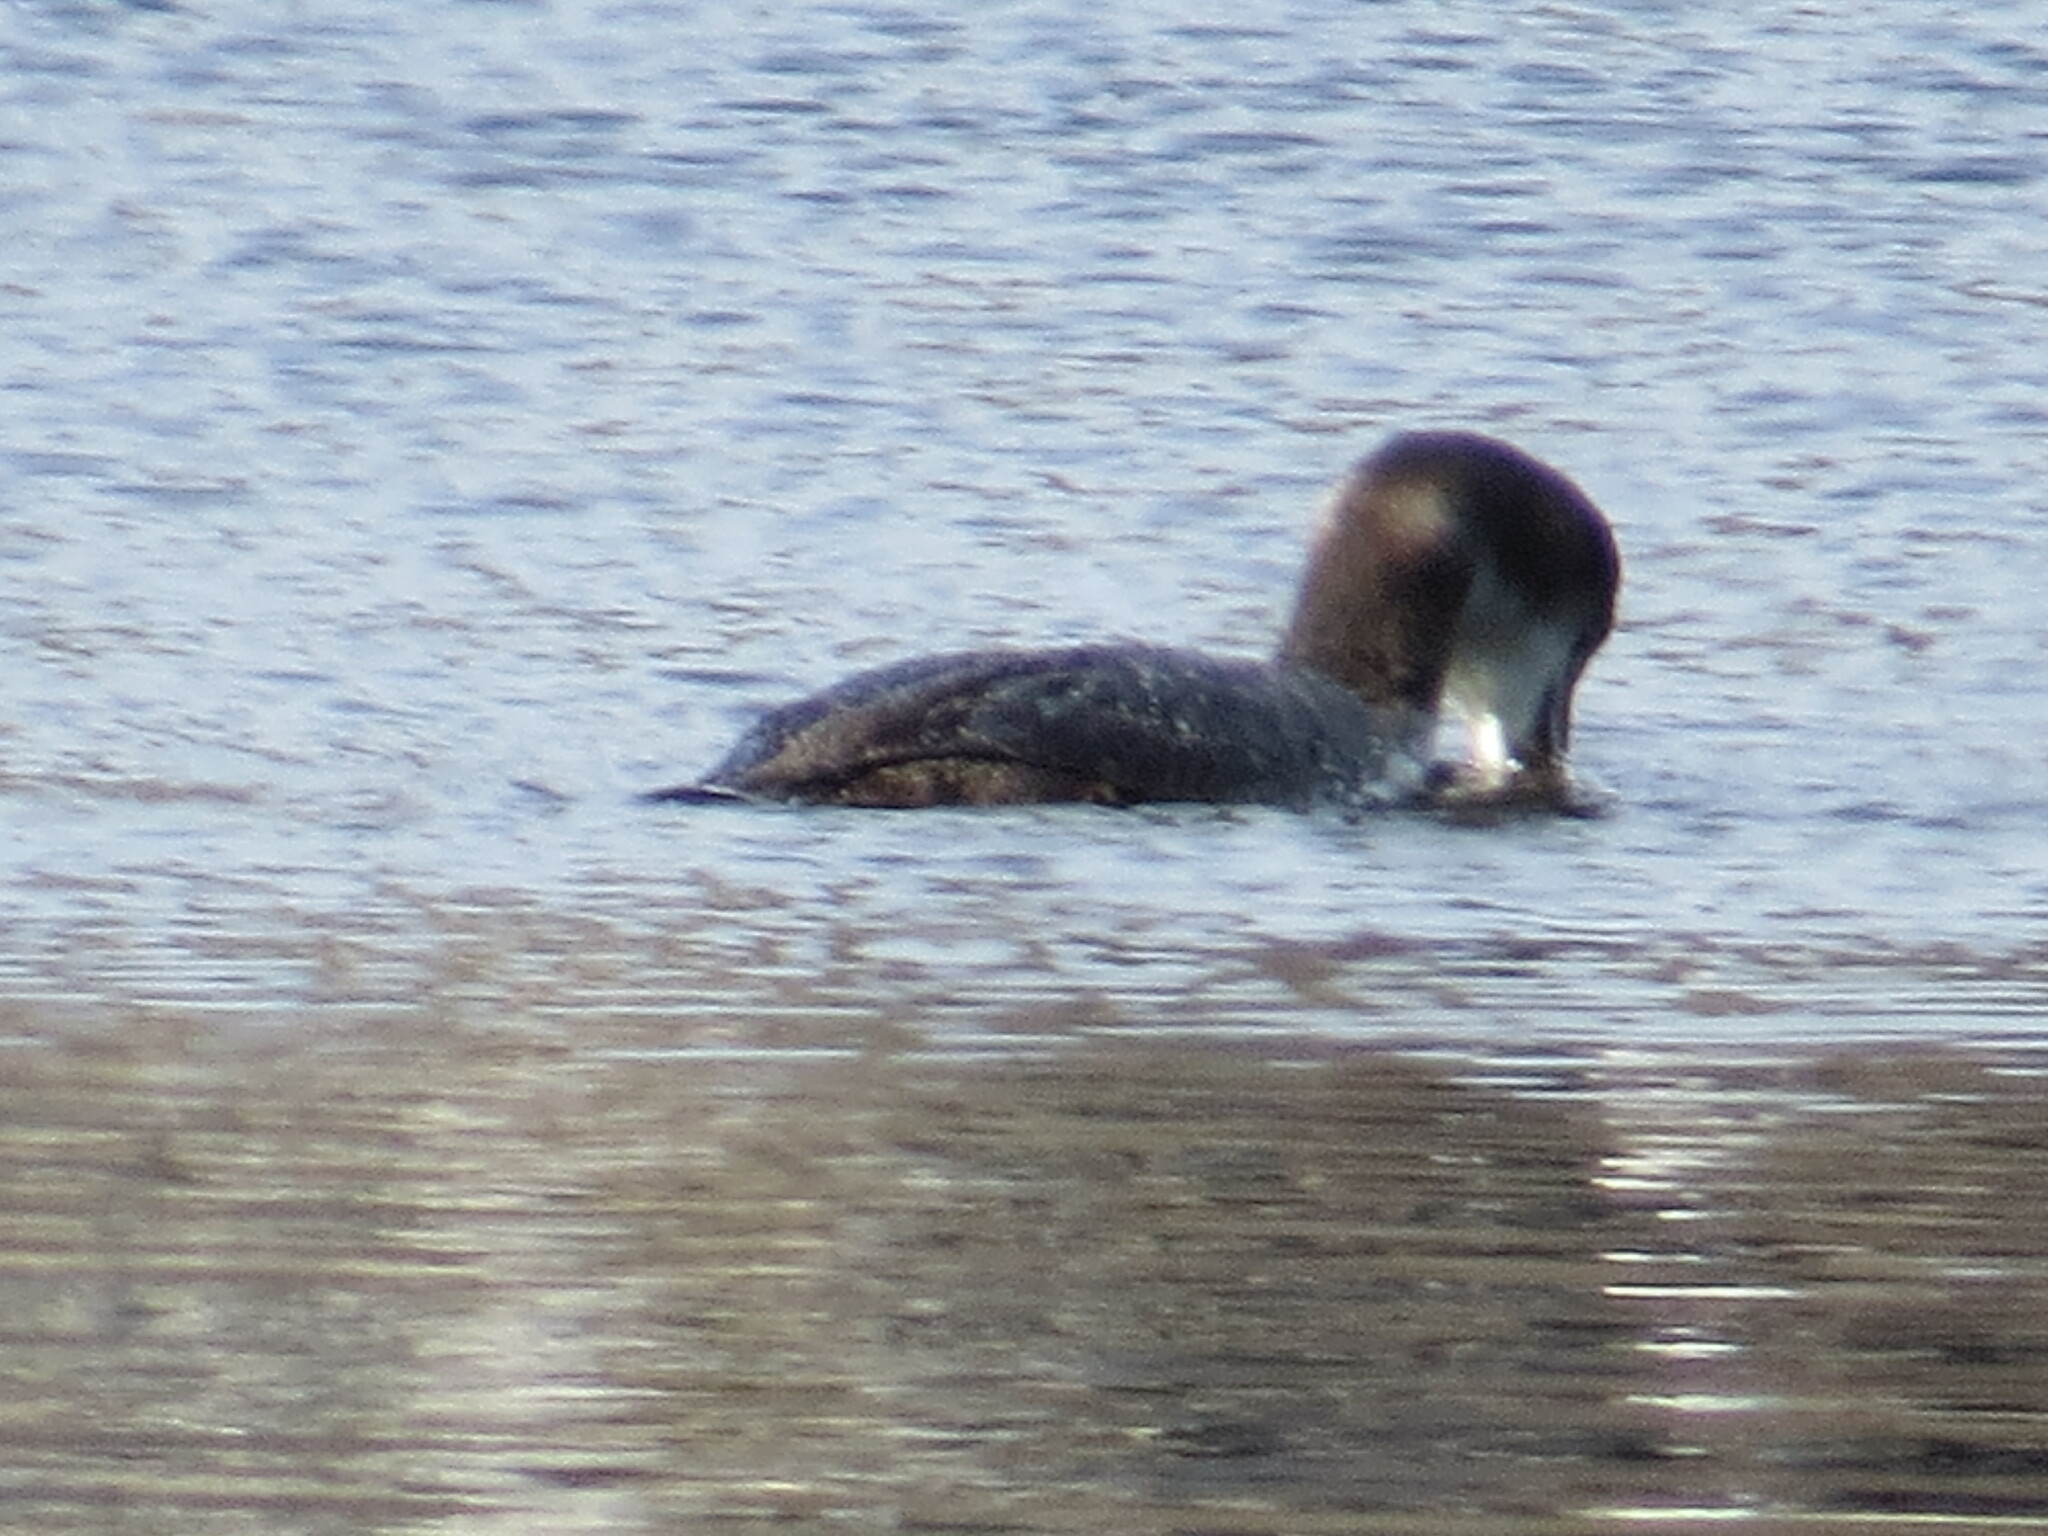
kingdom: Animalia
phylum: Chordata
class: Aves
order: Gaviiformes
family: Gaviidae
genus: Gavia
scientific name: Gavia immer
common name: Common loon
